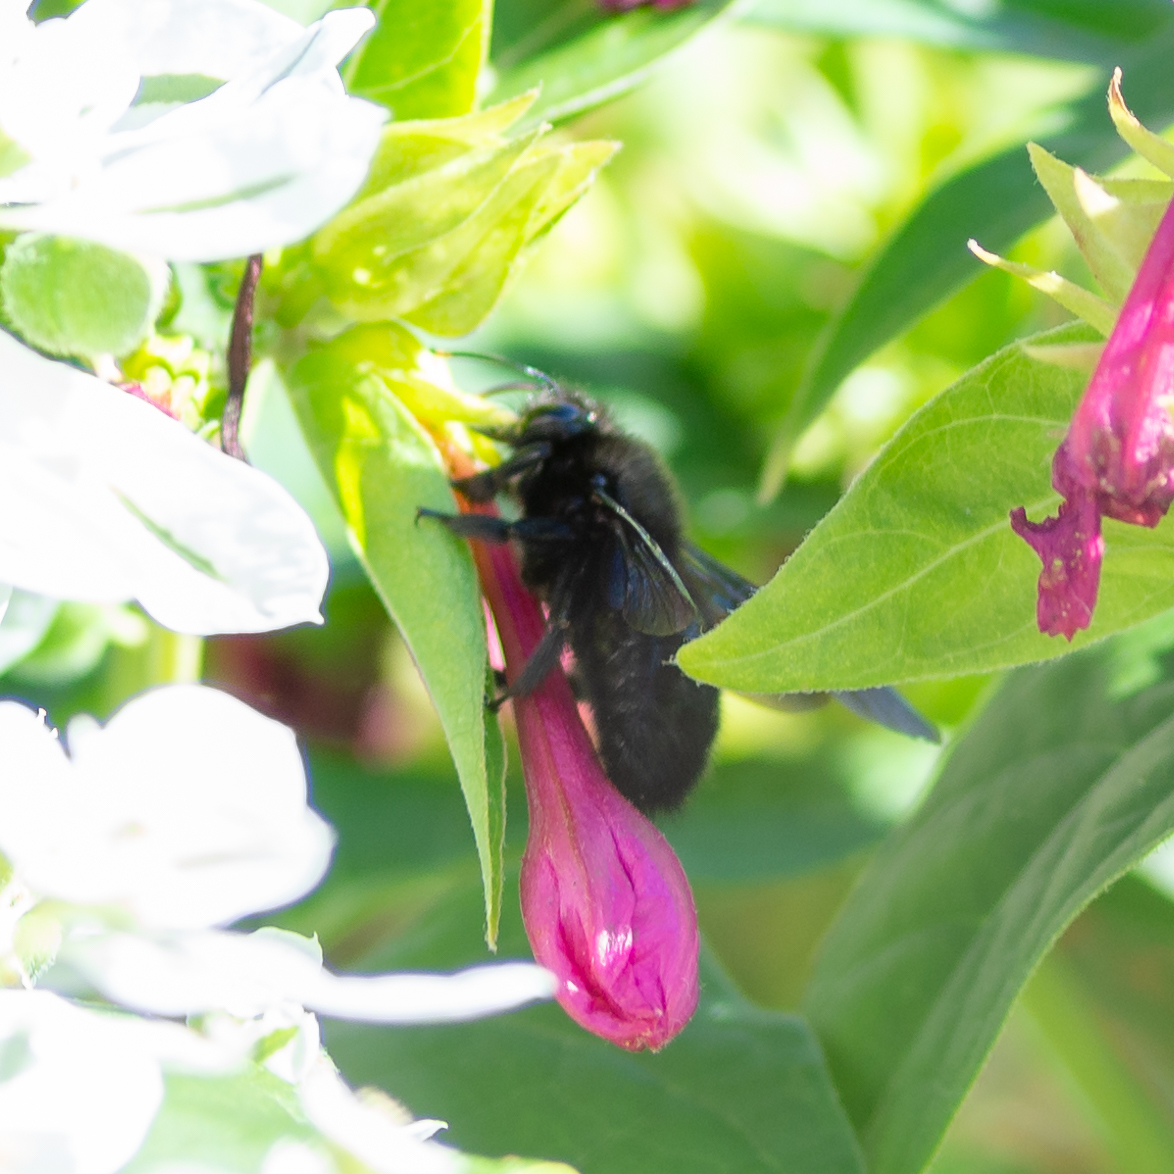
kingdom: Animalia
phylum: Arthropoda
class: Insecta
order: Hymenoptera
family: Apidae
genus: Xylocopa
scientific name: Xylocopa violacea
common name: Violet carpenter bee
